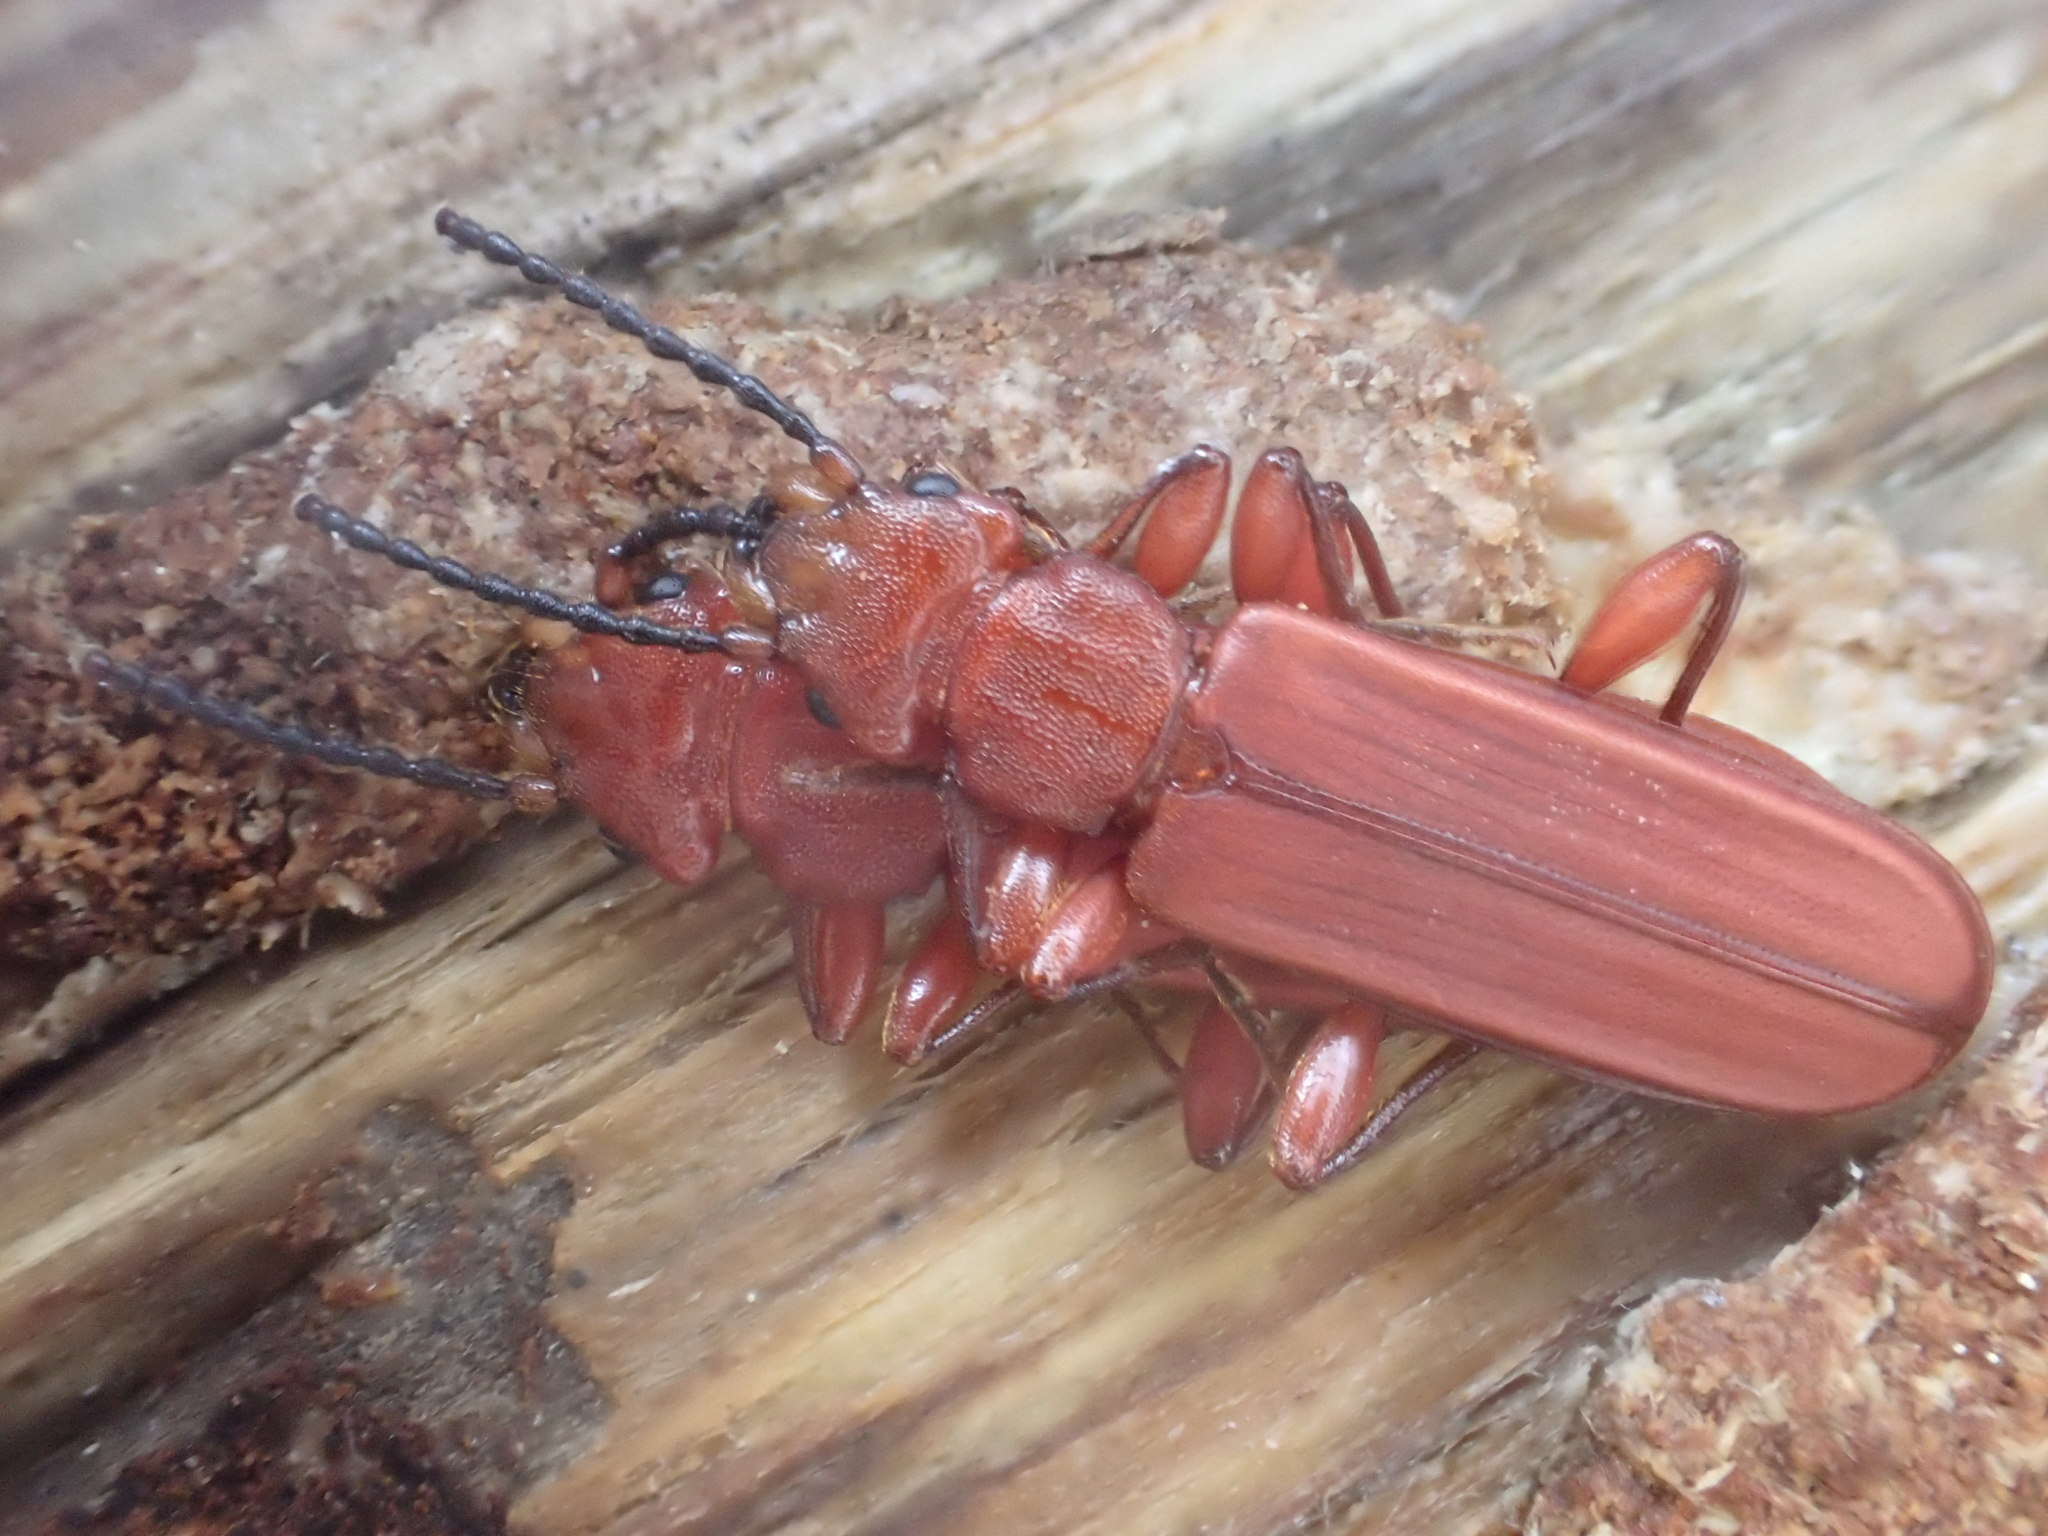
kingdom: Animalia
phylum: Arthropoda
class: Insecta
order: Coleoptera
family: Cucujidae
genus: Cucujus
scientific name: Cucujus clavipes
